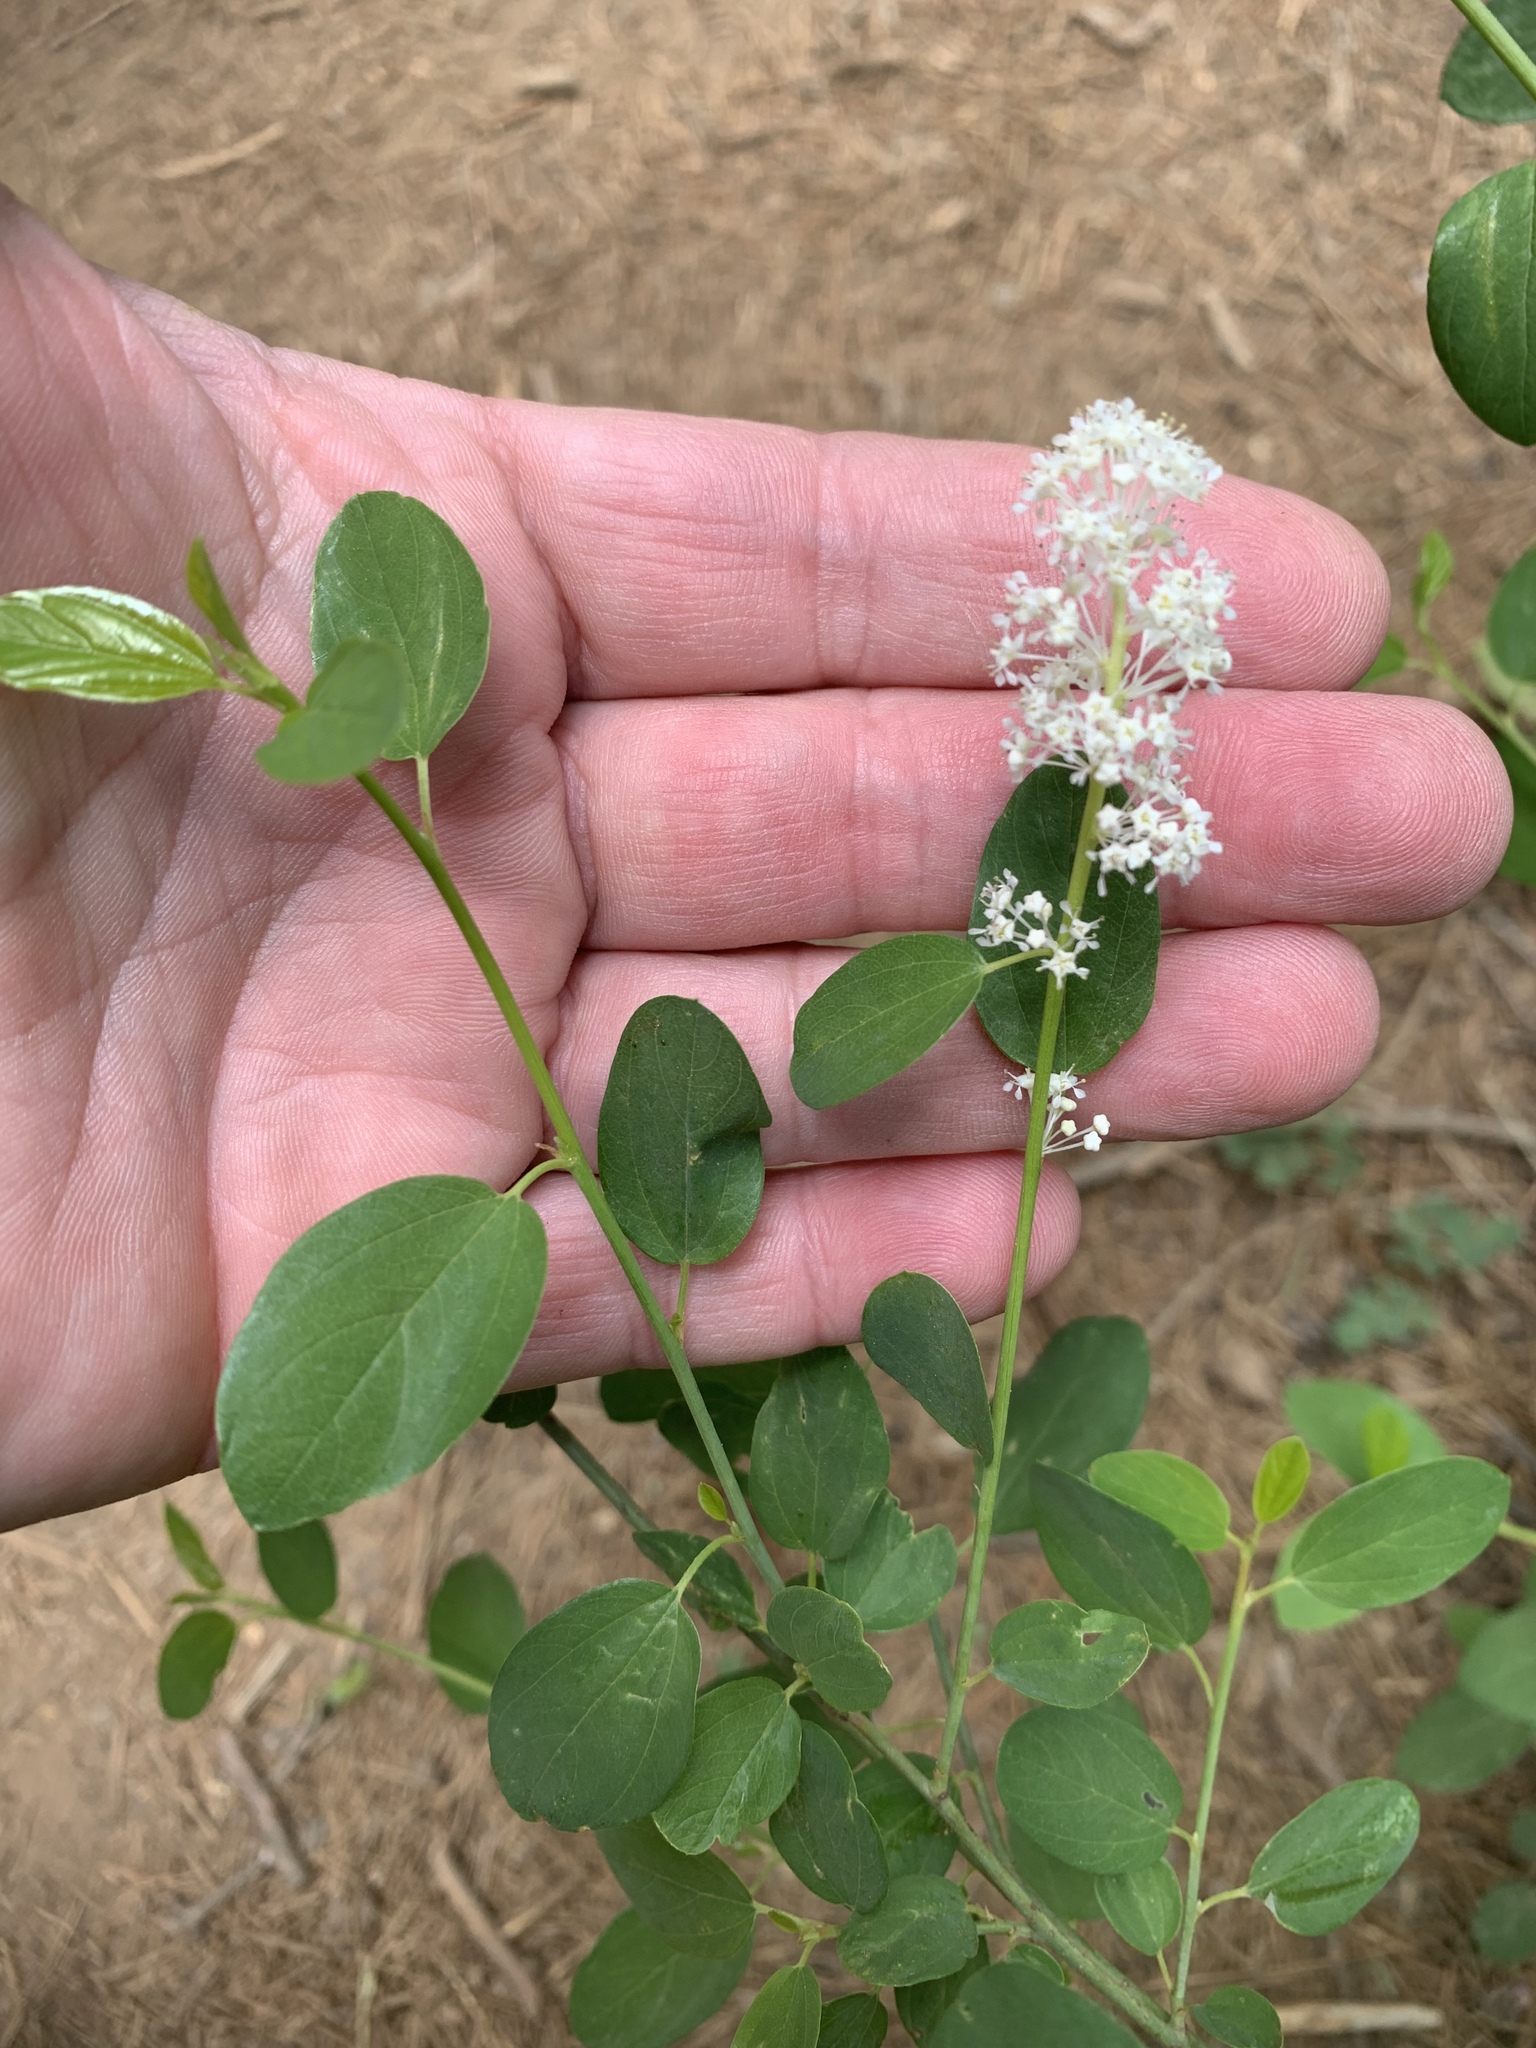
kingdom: Plantae
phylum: Tracheophyta
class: Magnoliopsida
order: Rosales
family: Rhamnaceae
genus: Ceanothus
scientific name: Ceanothus integerrimus
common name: Deerbrush ceanothus
